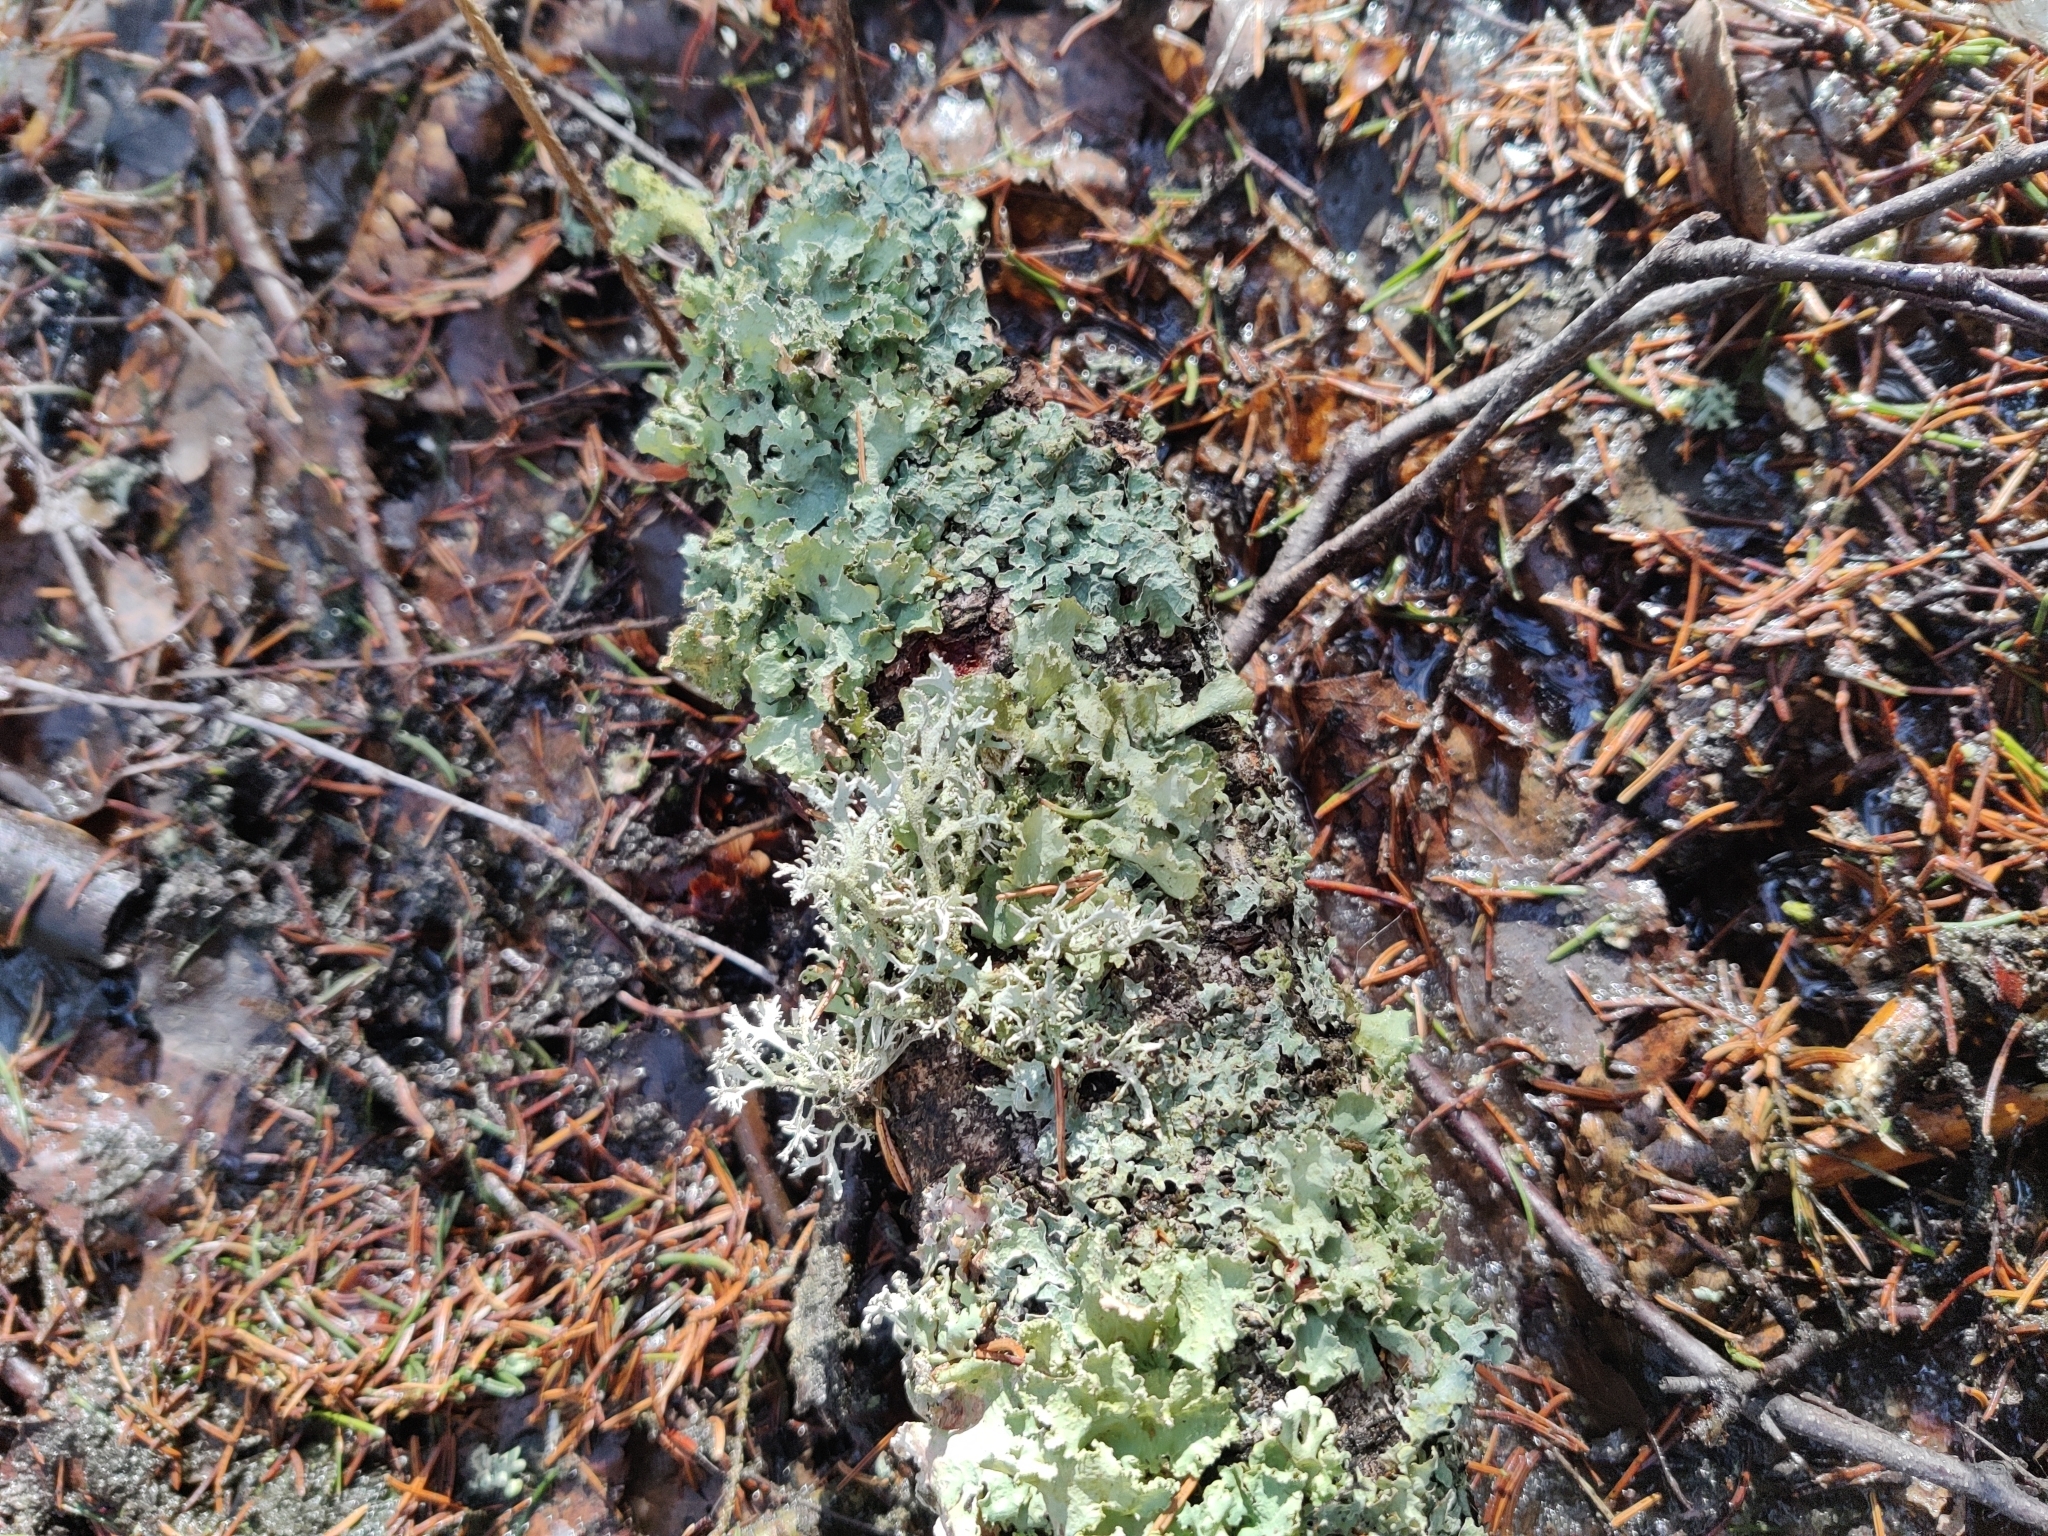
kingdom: Fungi
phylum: Ascomycota
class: Lecanoromycetes
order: Lecanorales
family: Parmeliaceae
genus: Platismatia
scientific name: Platismatia glauca
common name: Varied rag lichen
